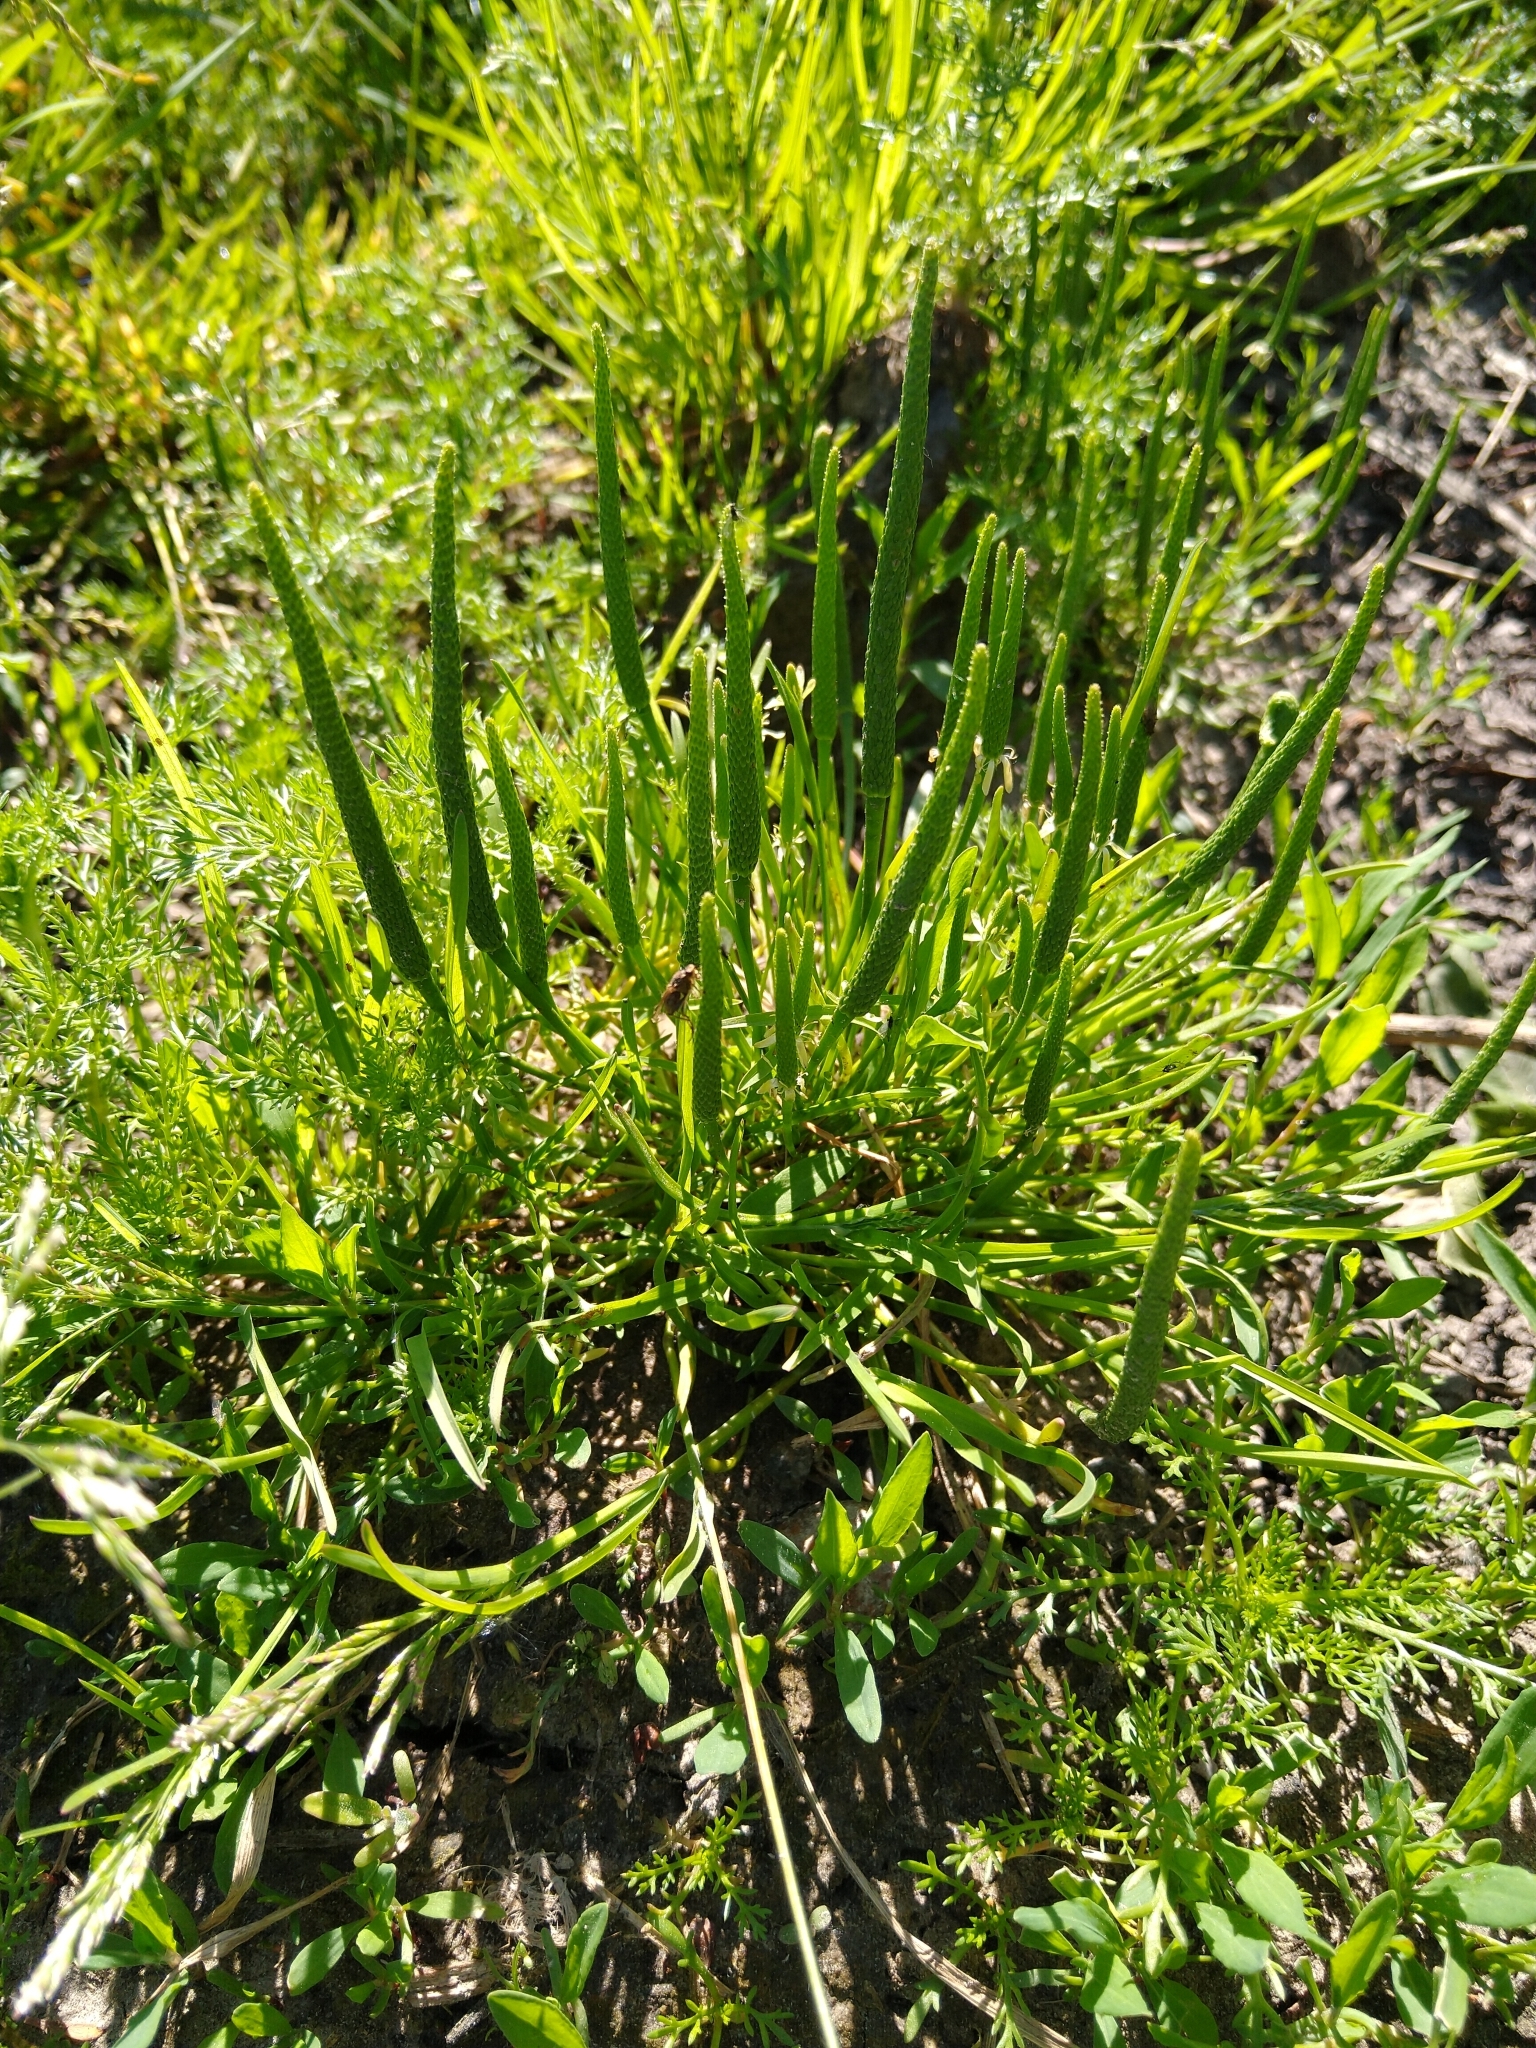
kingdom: Plantae
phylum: Tracheophyta
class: Magnoliopsida
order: Ranunculales
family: Ranunculaceae
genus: Myosurus
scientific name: Myosurus minimus
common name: Mousetail
